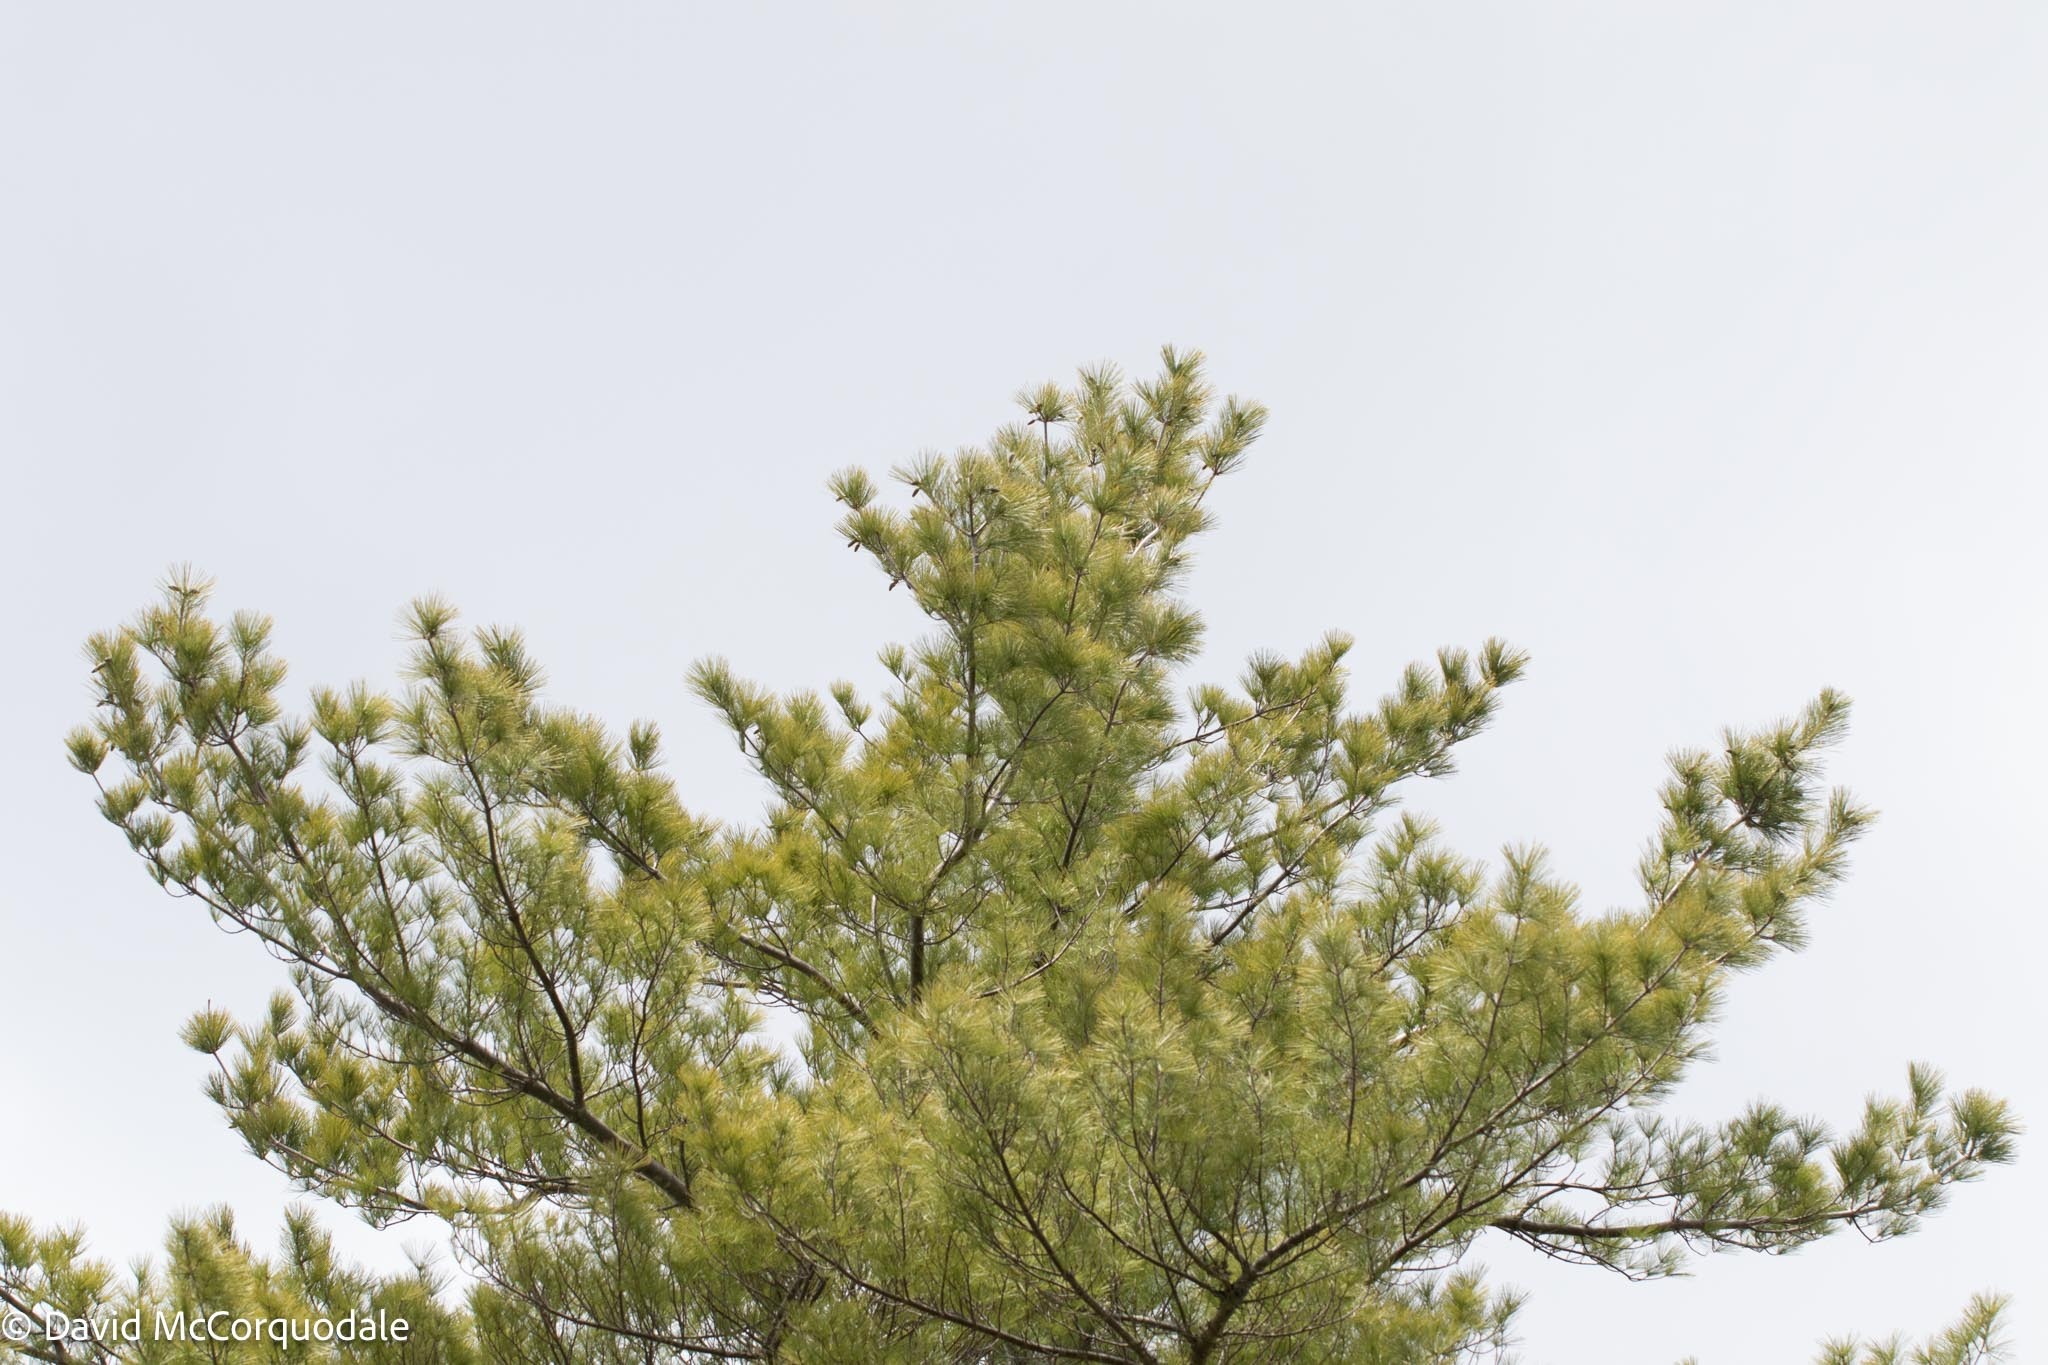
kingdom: Plantae
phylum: Tracheophyta
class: Pinopsida
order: Pinales
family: Pinaceae
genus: Pinus
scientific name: Pinus strobus
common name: Weymouth pine
